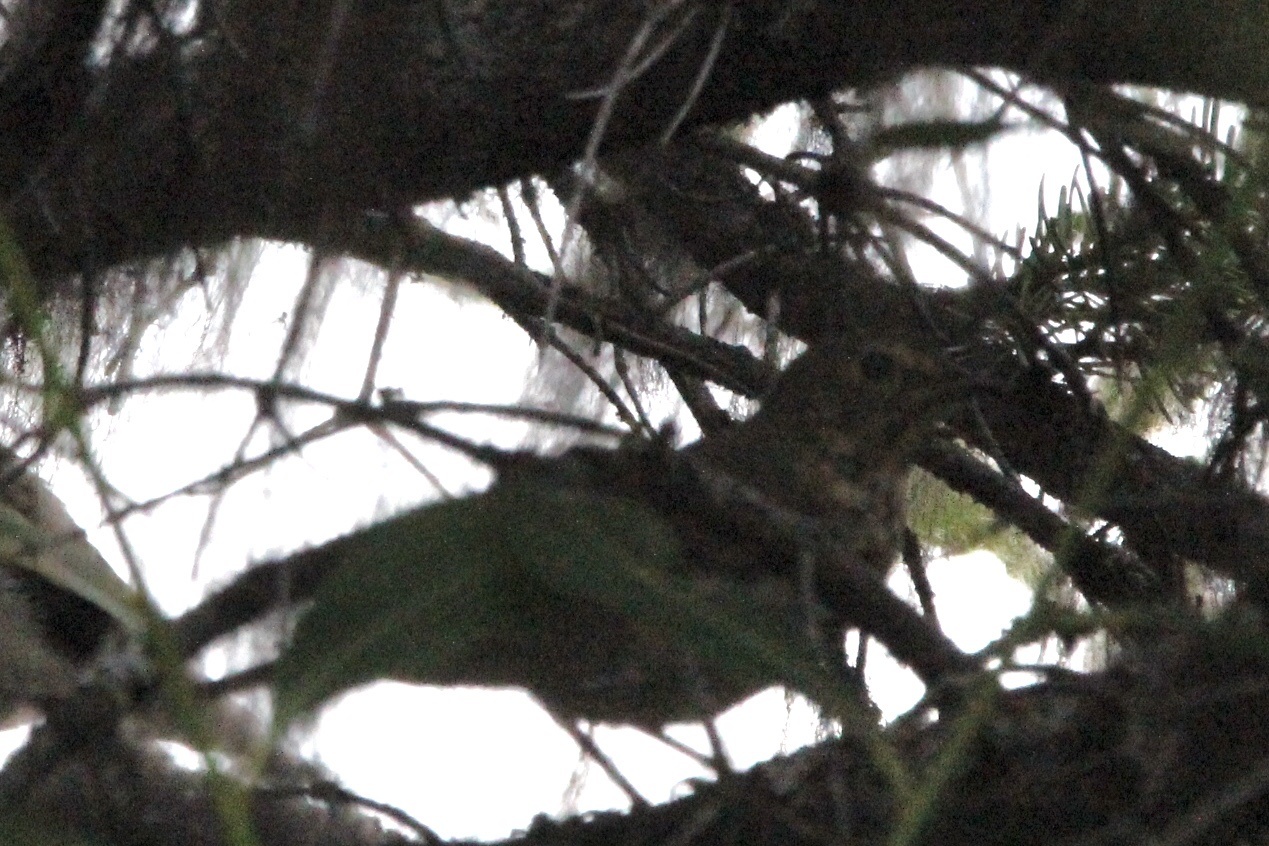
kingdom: Animalia
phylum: Chordata
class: Aves
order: Passeriformes
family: Turdidae
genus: Catharus
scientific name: Catharus ustulatus
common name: Swainson's thrush
